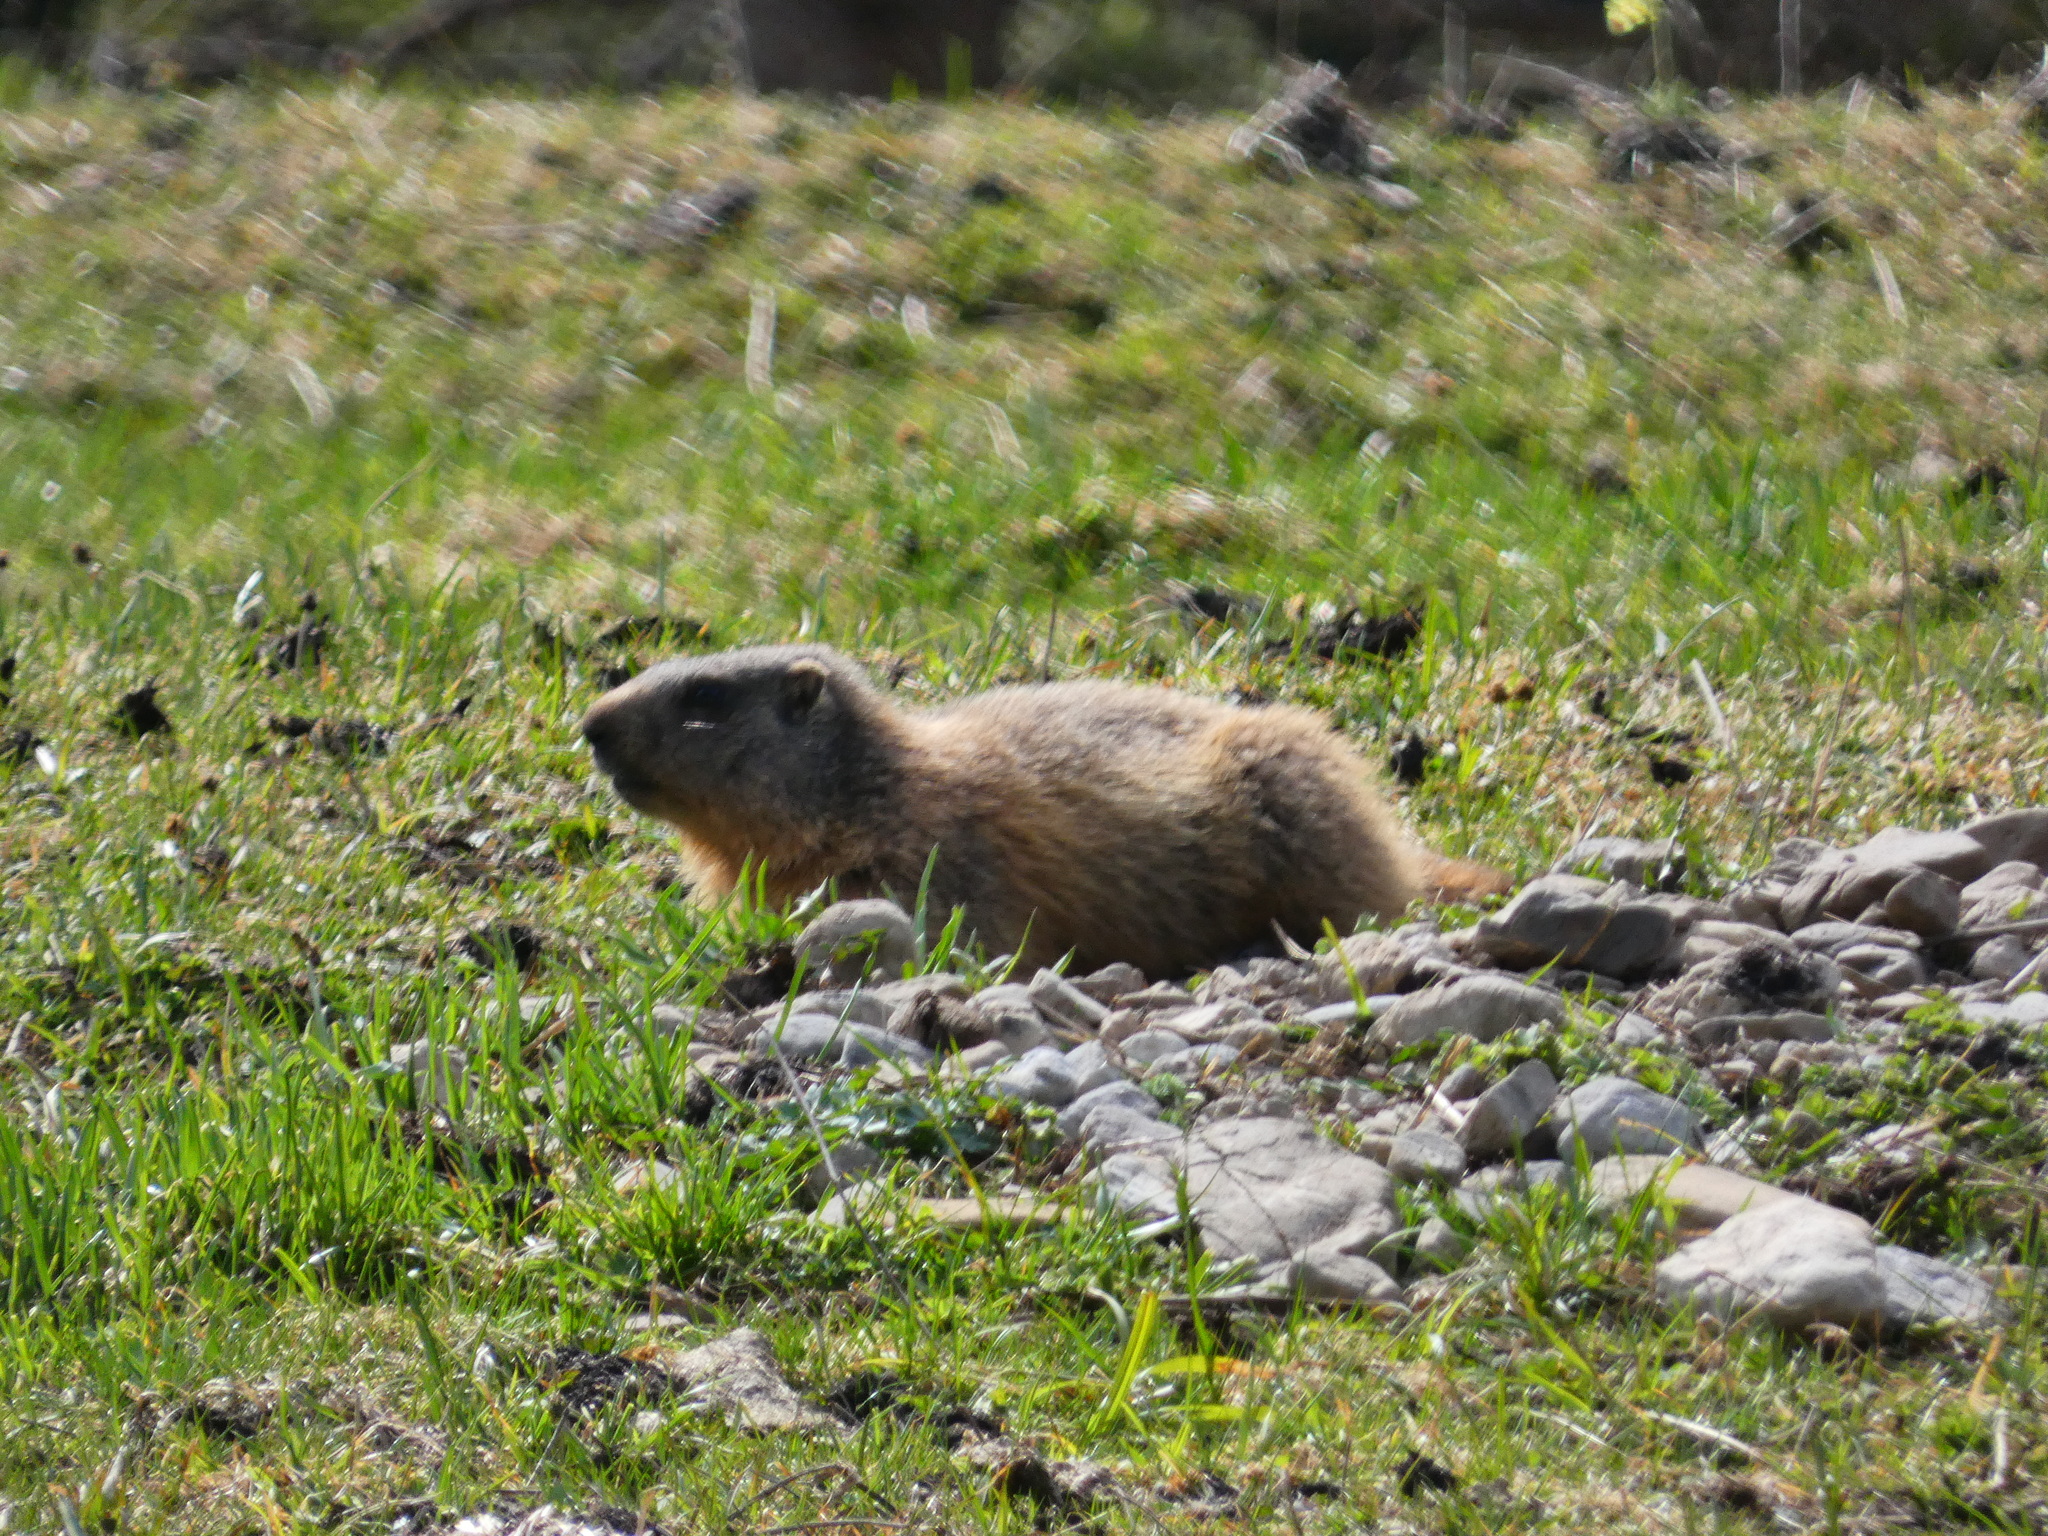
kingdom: Animalia
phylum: Chordata
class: Mammalia
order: Rodentia
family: Sciuridae
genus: Marmota
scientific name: Marmota marmota
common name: Alpine marmot
